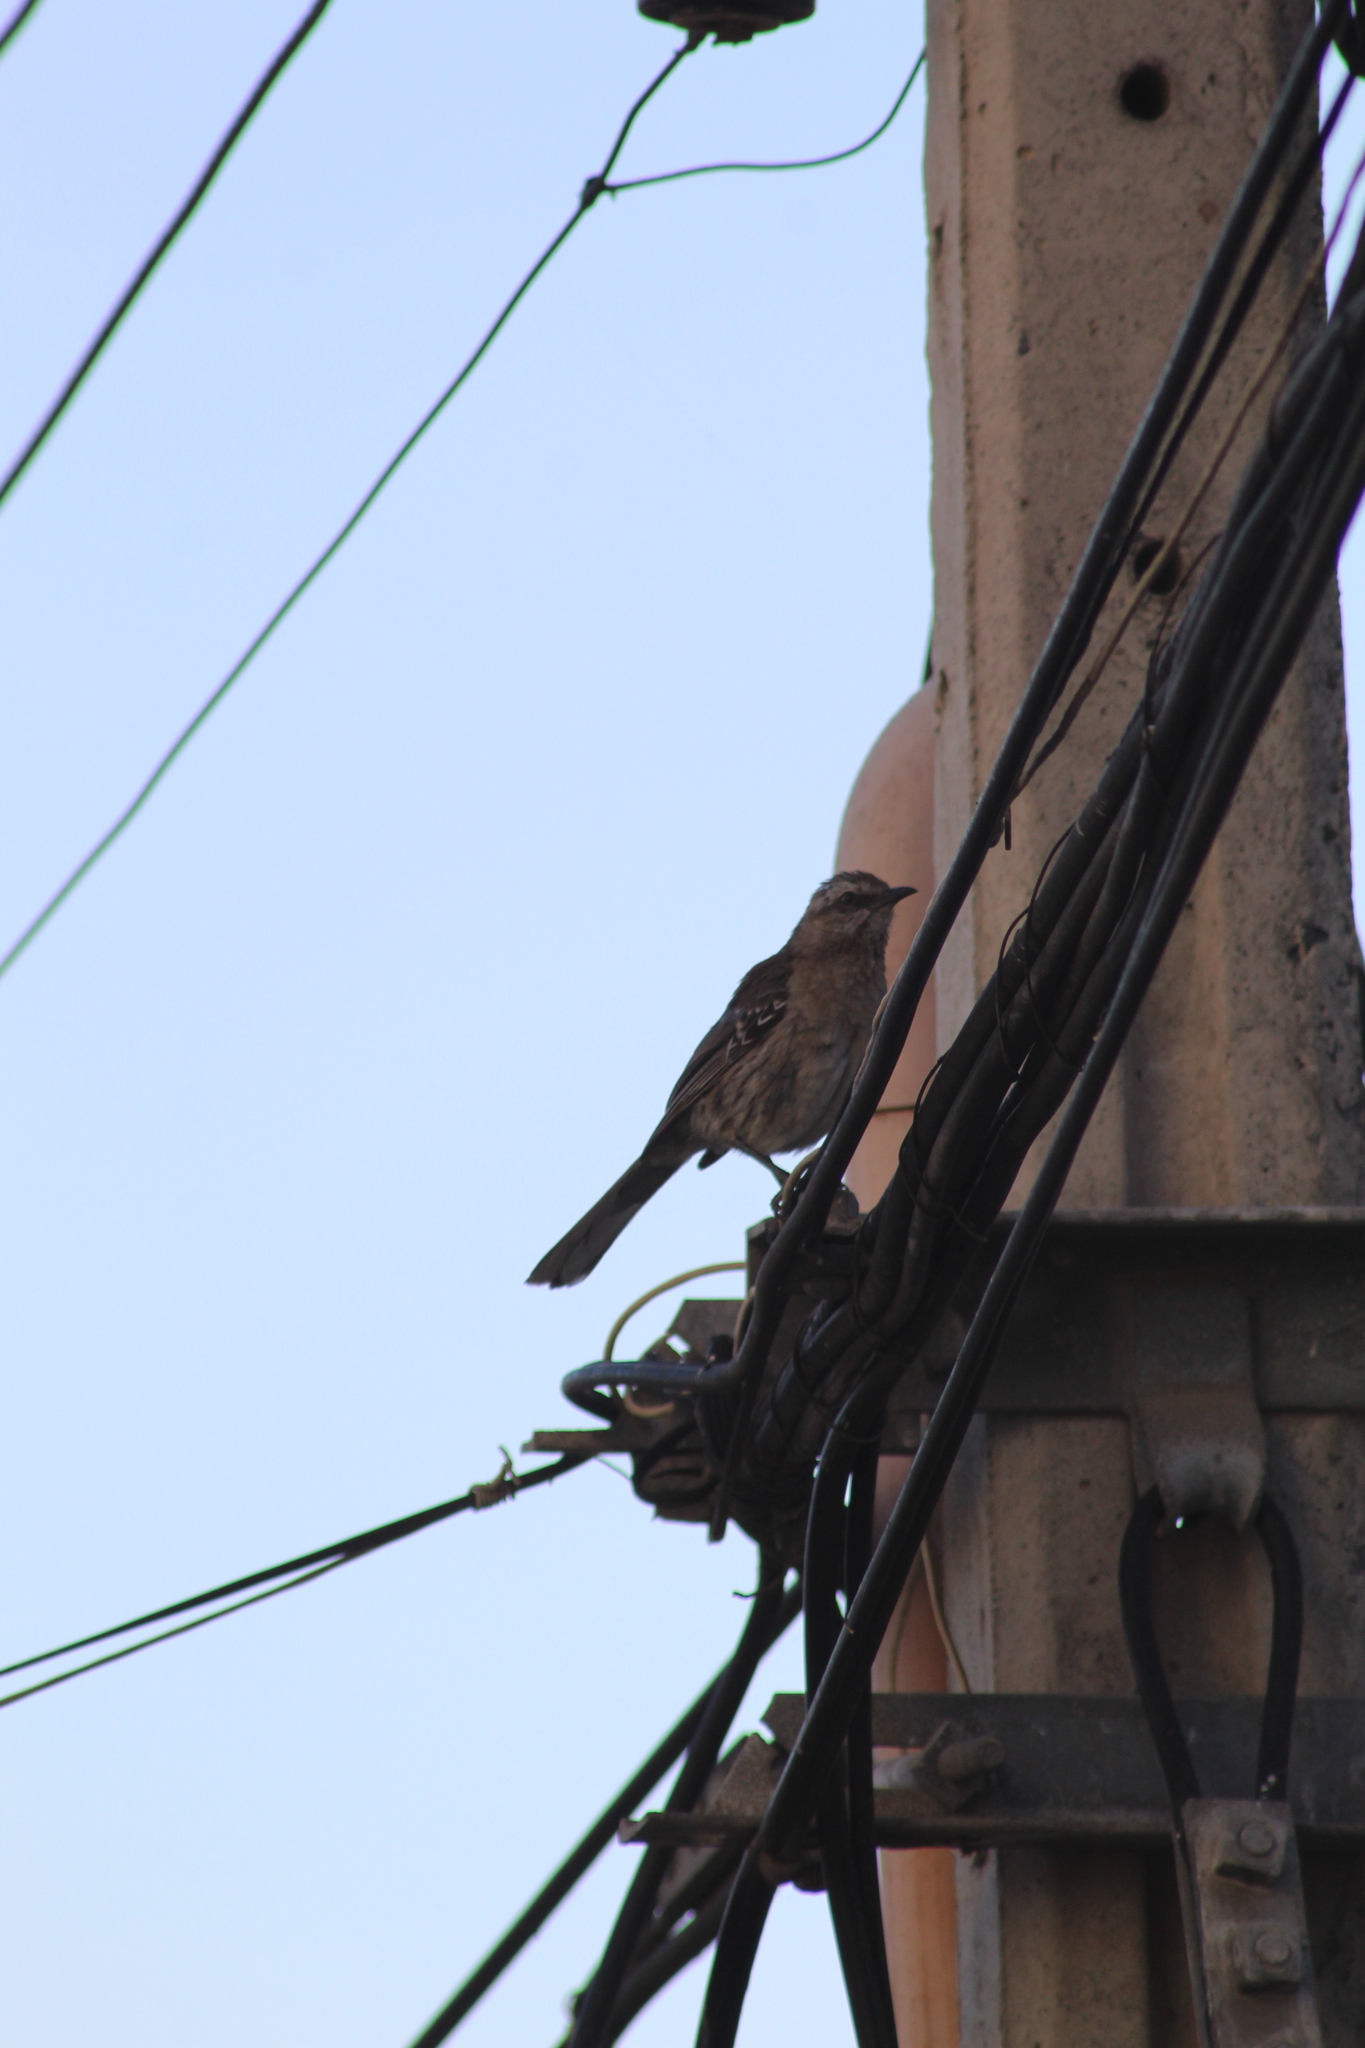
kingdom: Animalia
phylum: Chordata
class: Aves
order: Passeriformes
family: Mimidae
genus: Mimus
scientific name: Mimus thenca
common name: Chilean mockingbird
